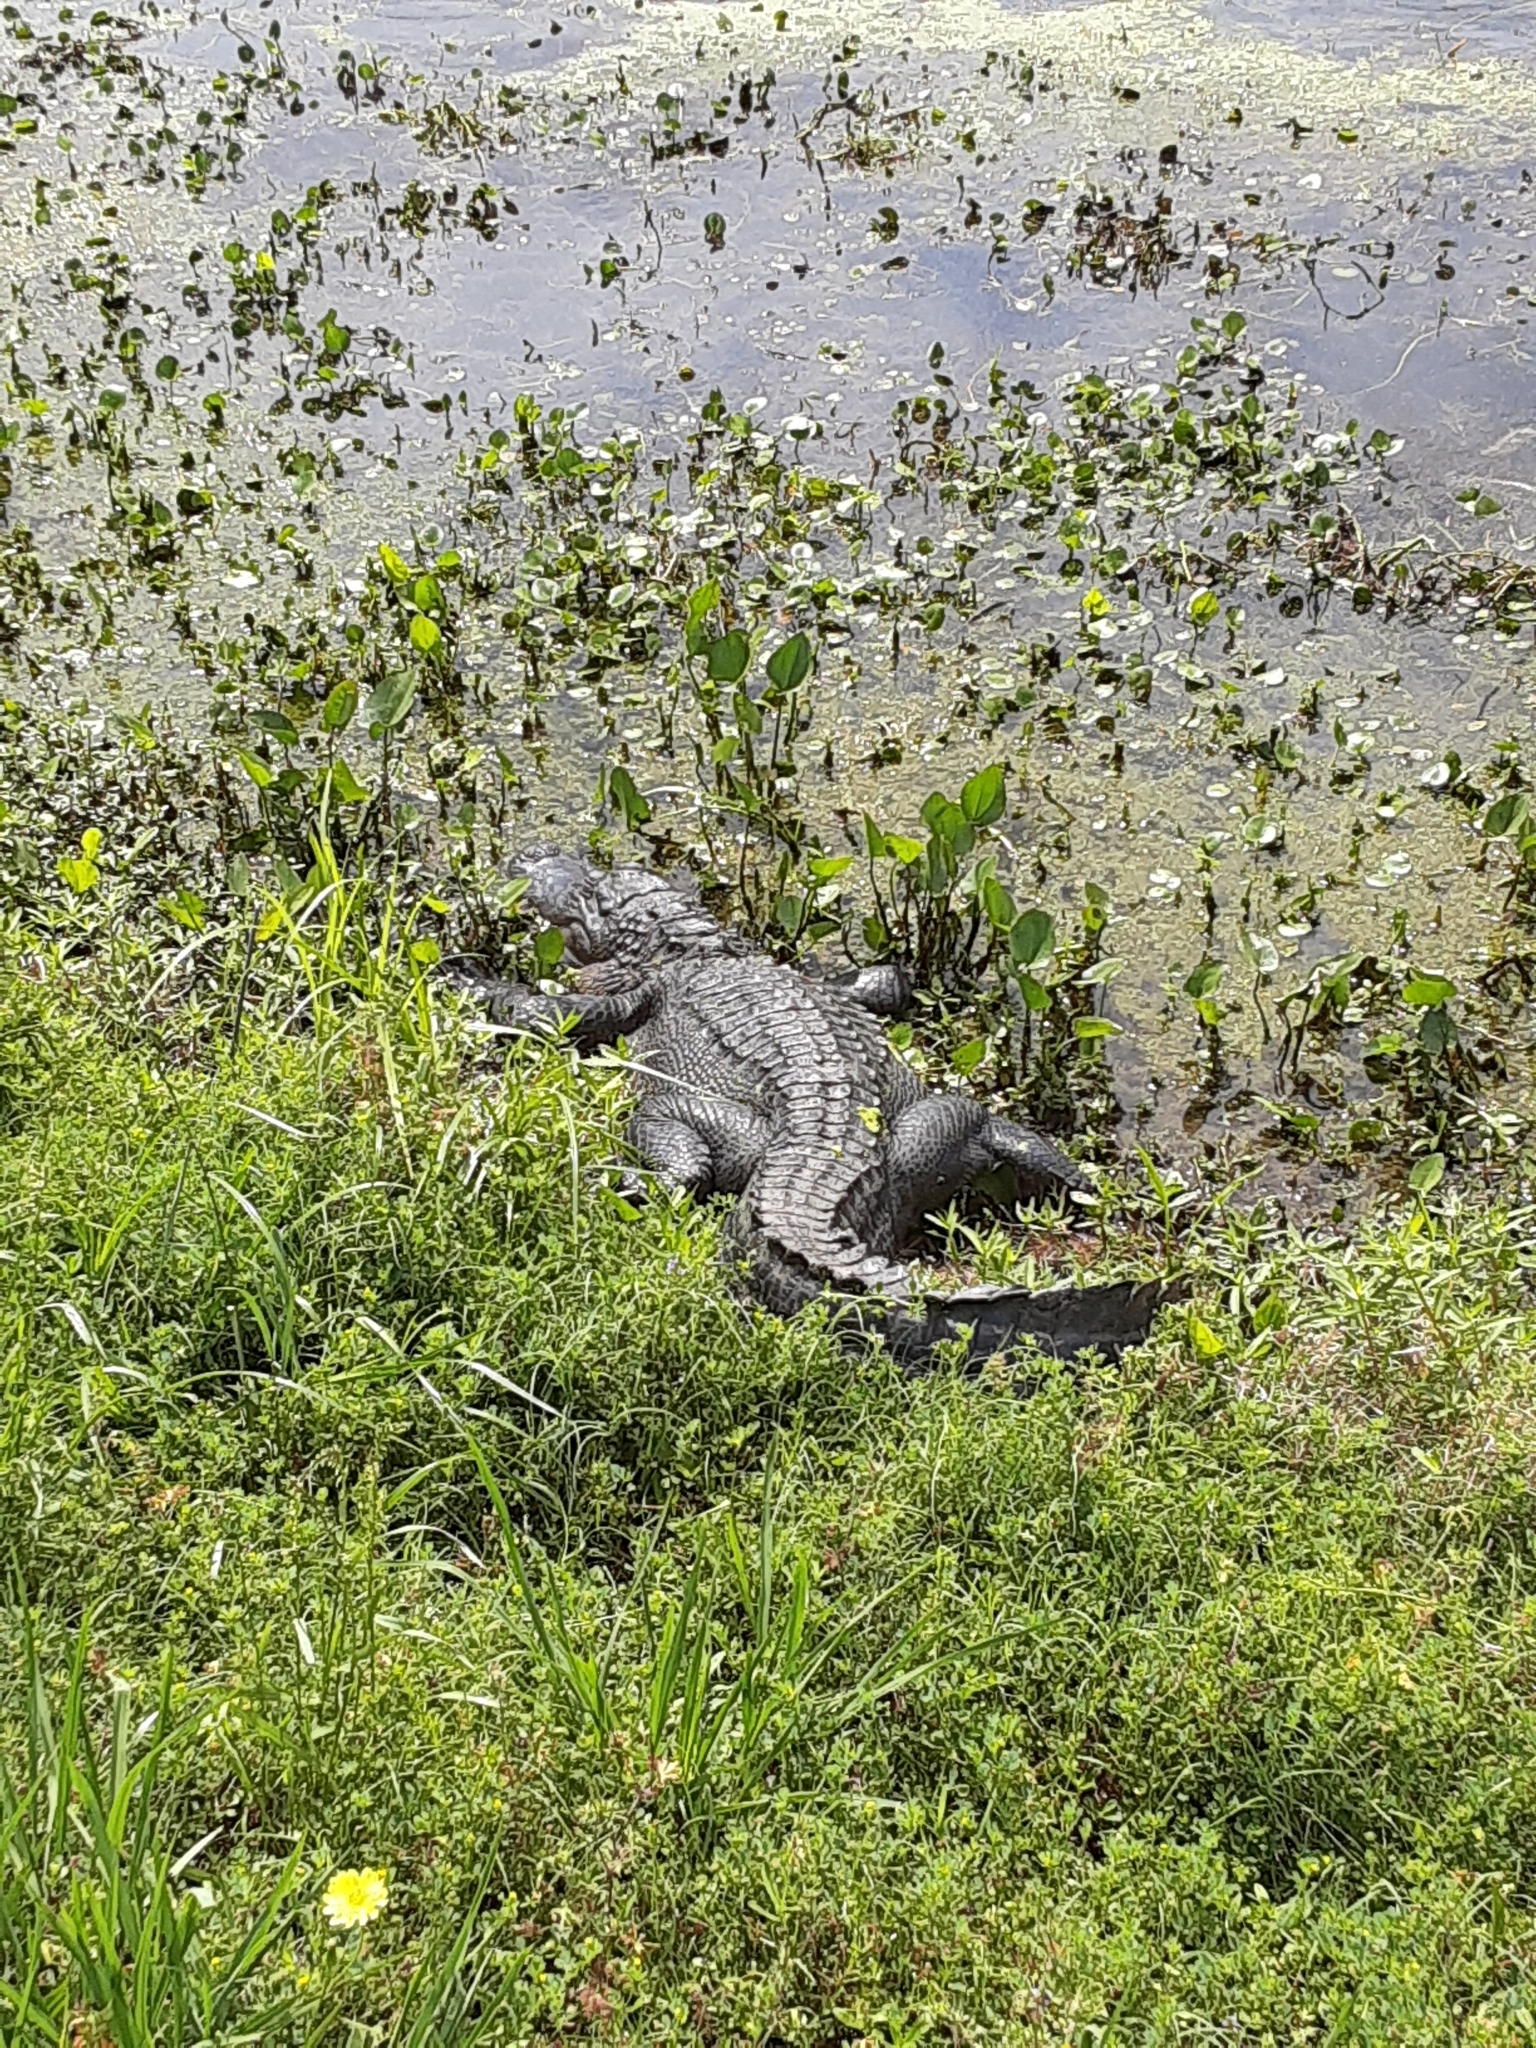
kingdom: Animalia
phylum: Chordata
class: Crocodylia
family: Alligatoridae
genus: Alligator
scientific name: Alligator mississippiensis
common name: American alligator
